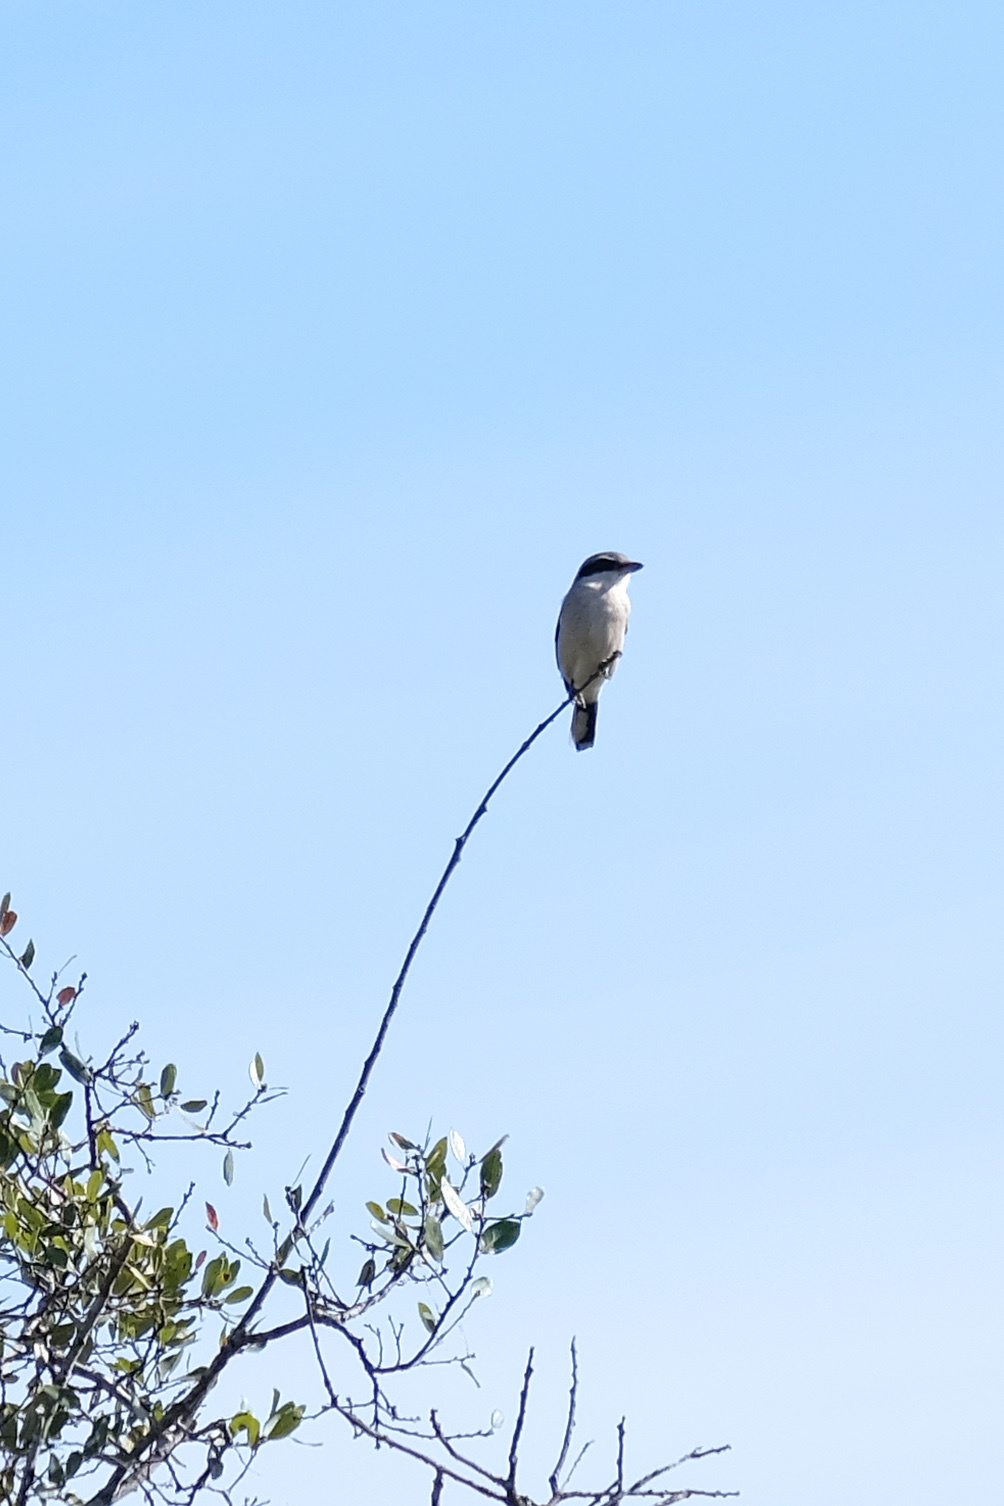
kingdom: Animalia
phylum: Chordata
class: Aves
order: Passeriformes
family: Laniidae
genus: Lanius
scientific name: Lanius ludovicianus
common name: Loggerhead shrike
